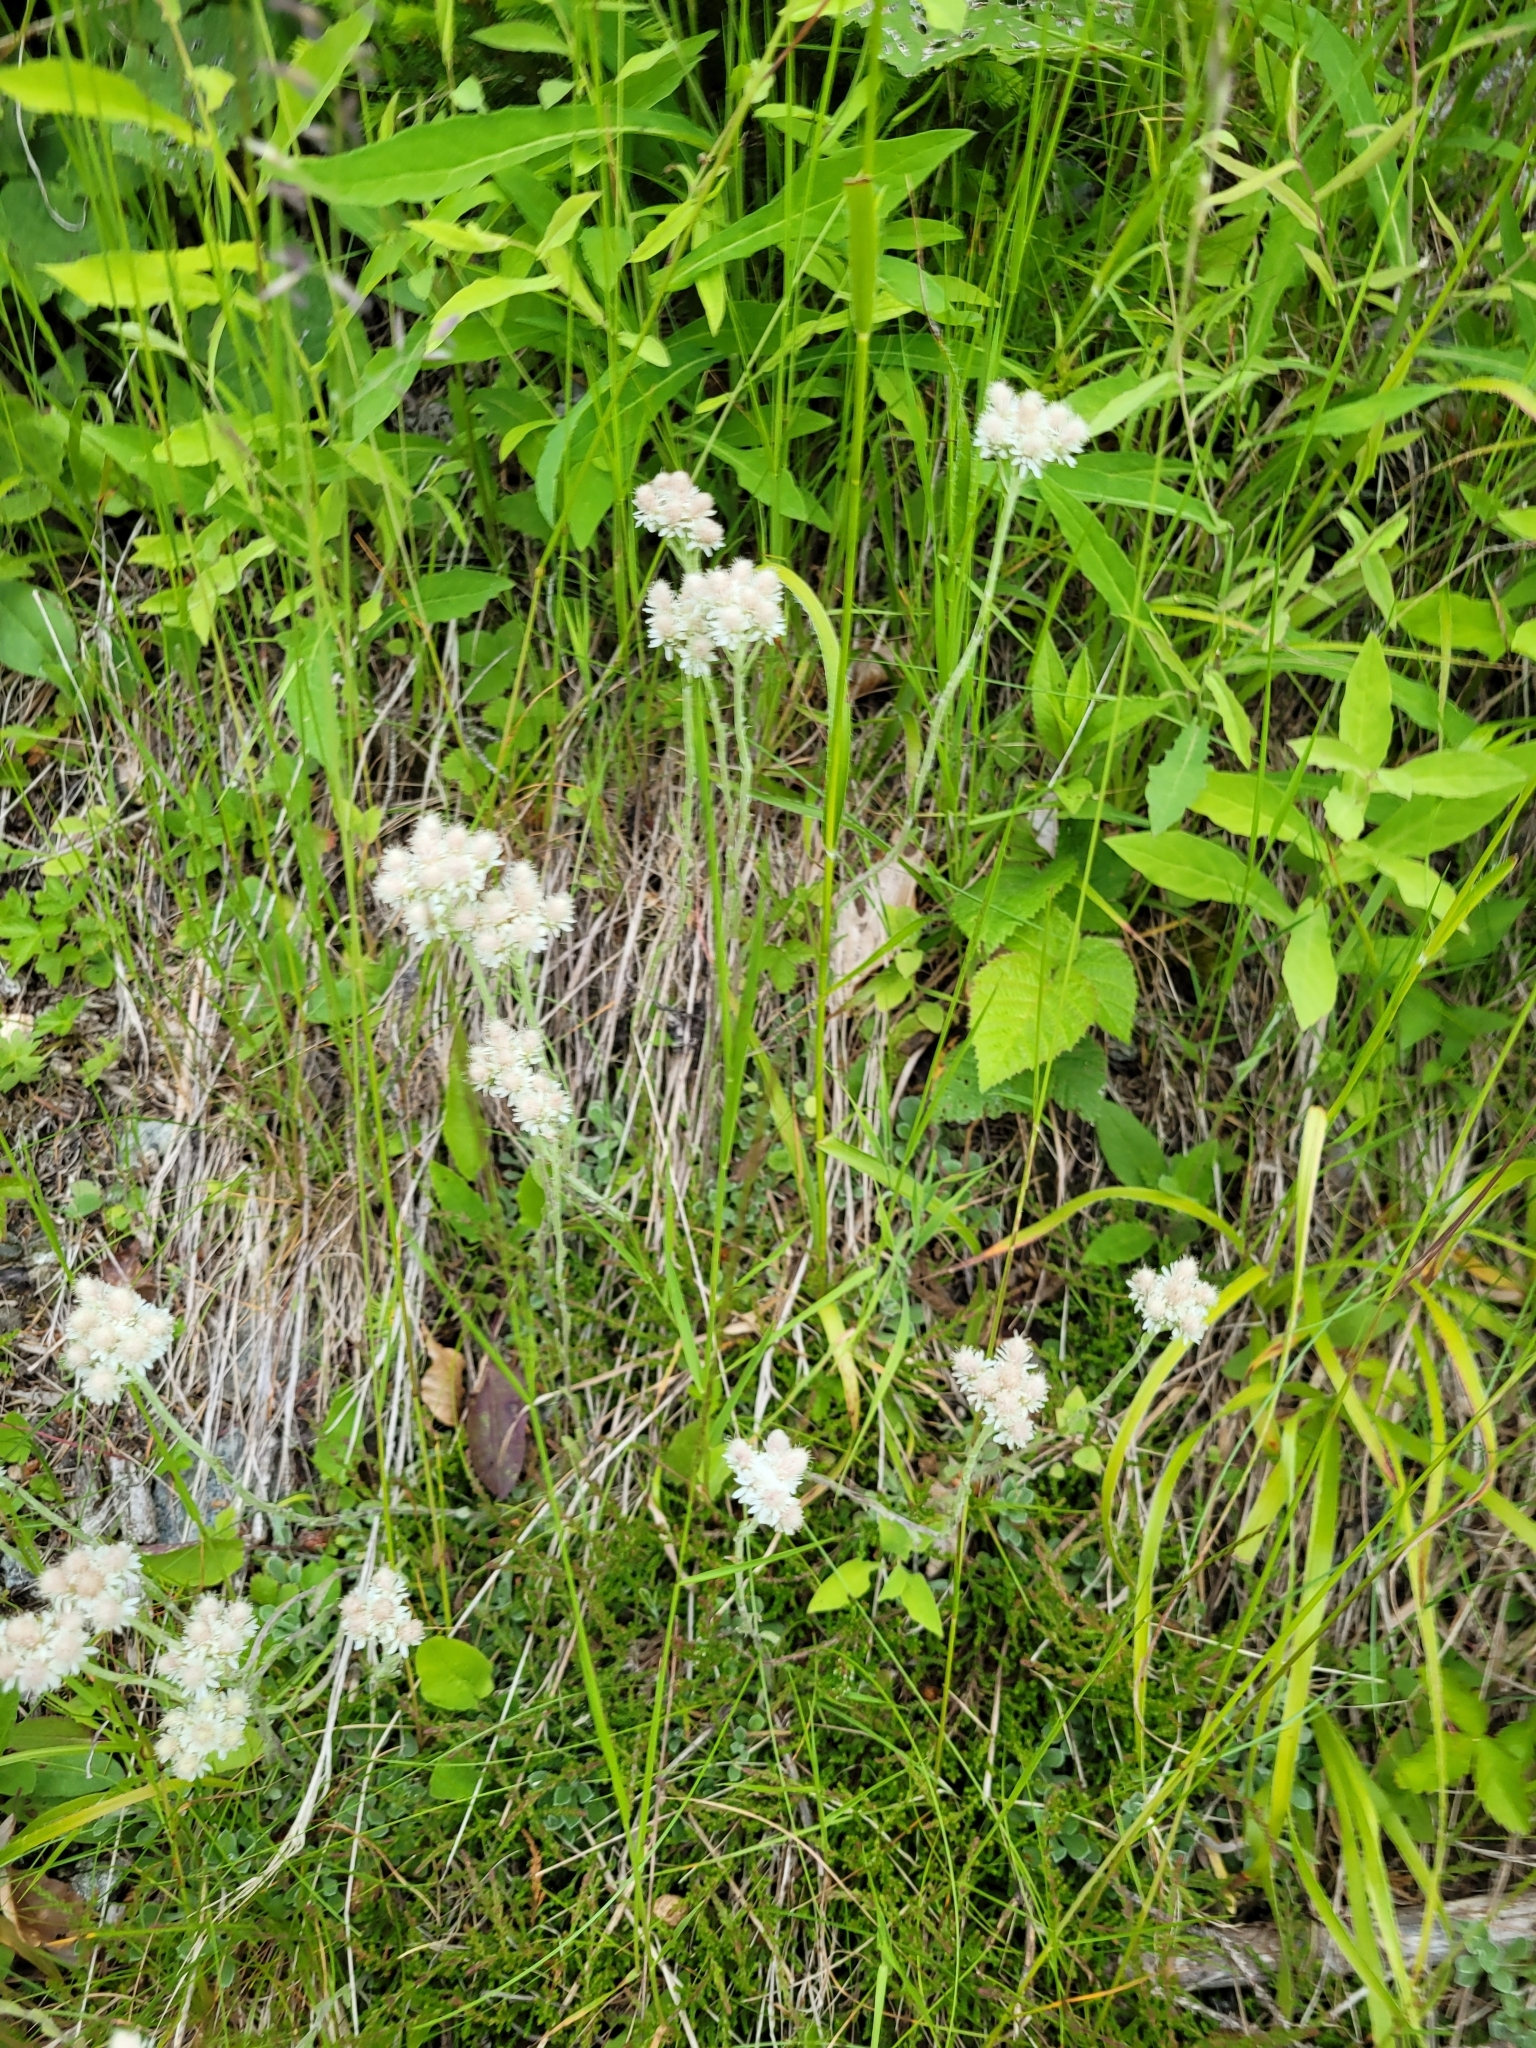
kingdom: Plantae
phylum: Tracheophyta
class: Magnoliopsida
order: Asterales
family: Asteraceae
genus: Antennaria
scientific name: Antennaria dioica
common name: Mountain everlasting
